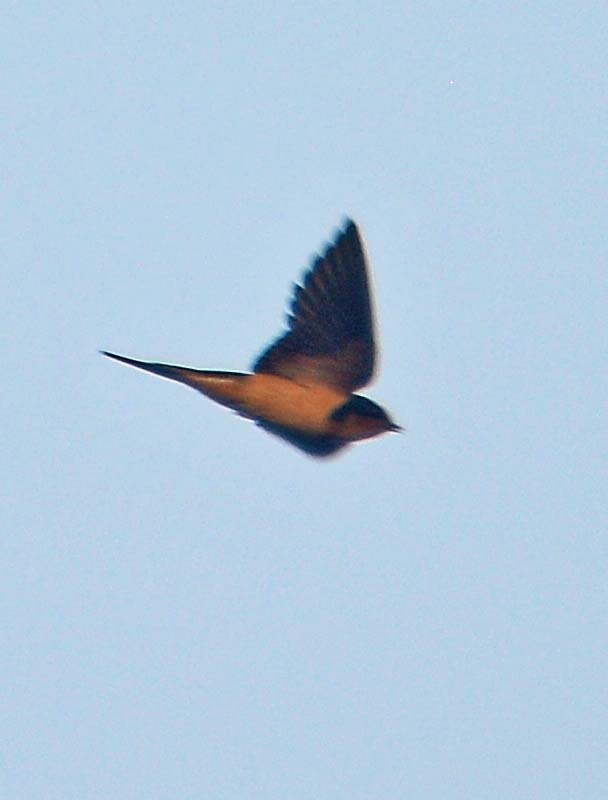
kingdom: Animalia
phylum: Chordata
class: Aves
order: Passeriformes
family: Hirundinidae
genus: Hirundo
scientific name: Hirundo rustica
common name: Barn swallow
